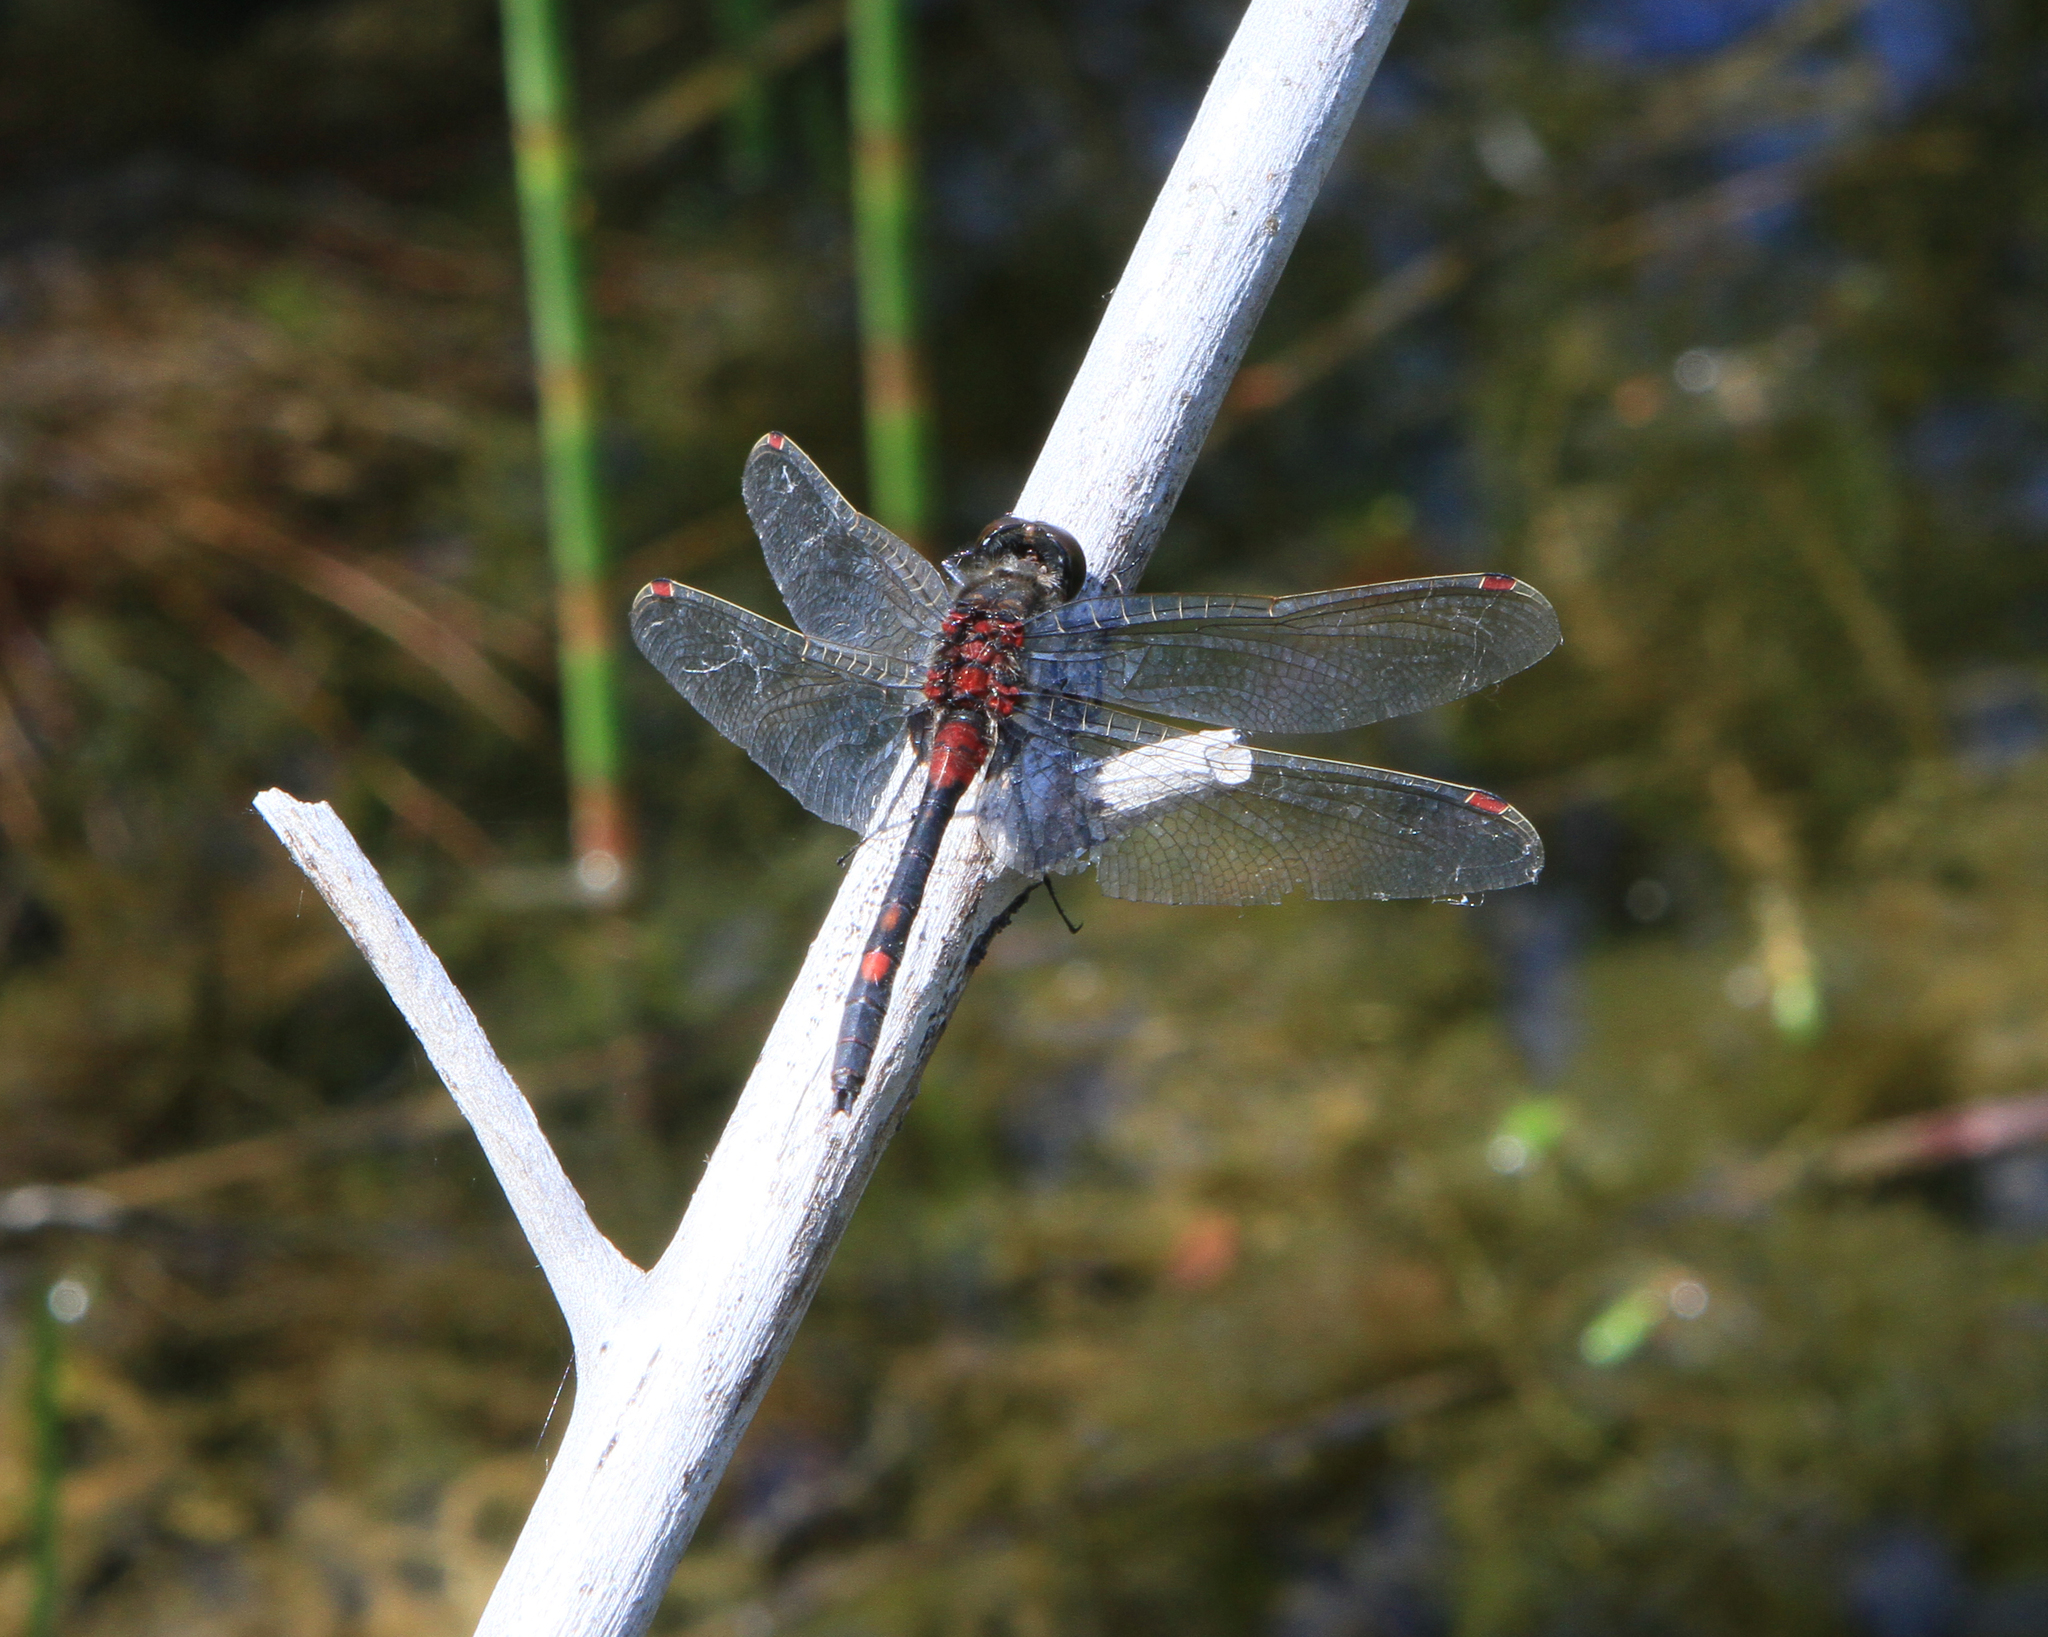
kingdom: Animalia
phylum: Arthropoda
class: Insecta
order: Odonata
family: Libellulidae
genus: Leucorrhinia
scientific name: Leucorrhinia rubicunda
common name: Ruby whiteface
